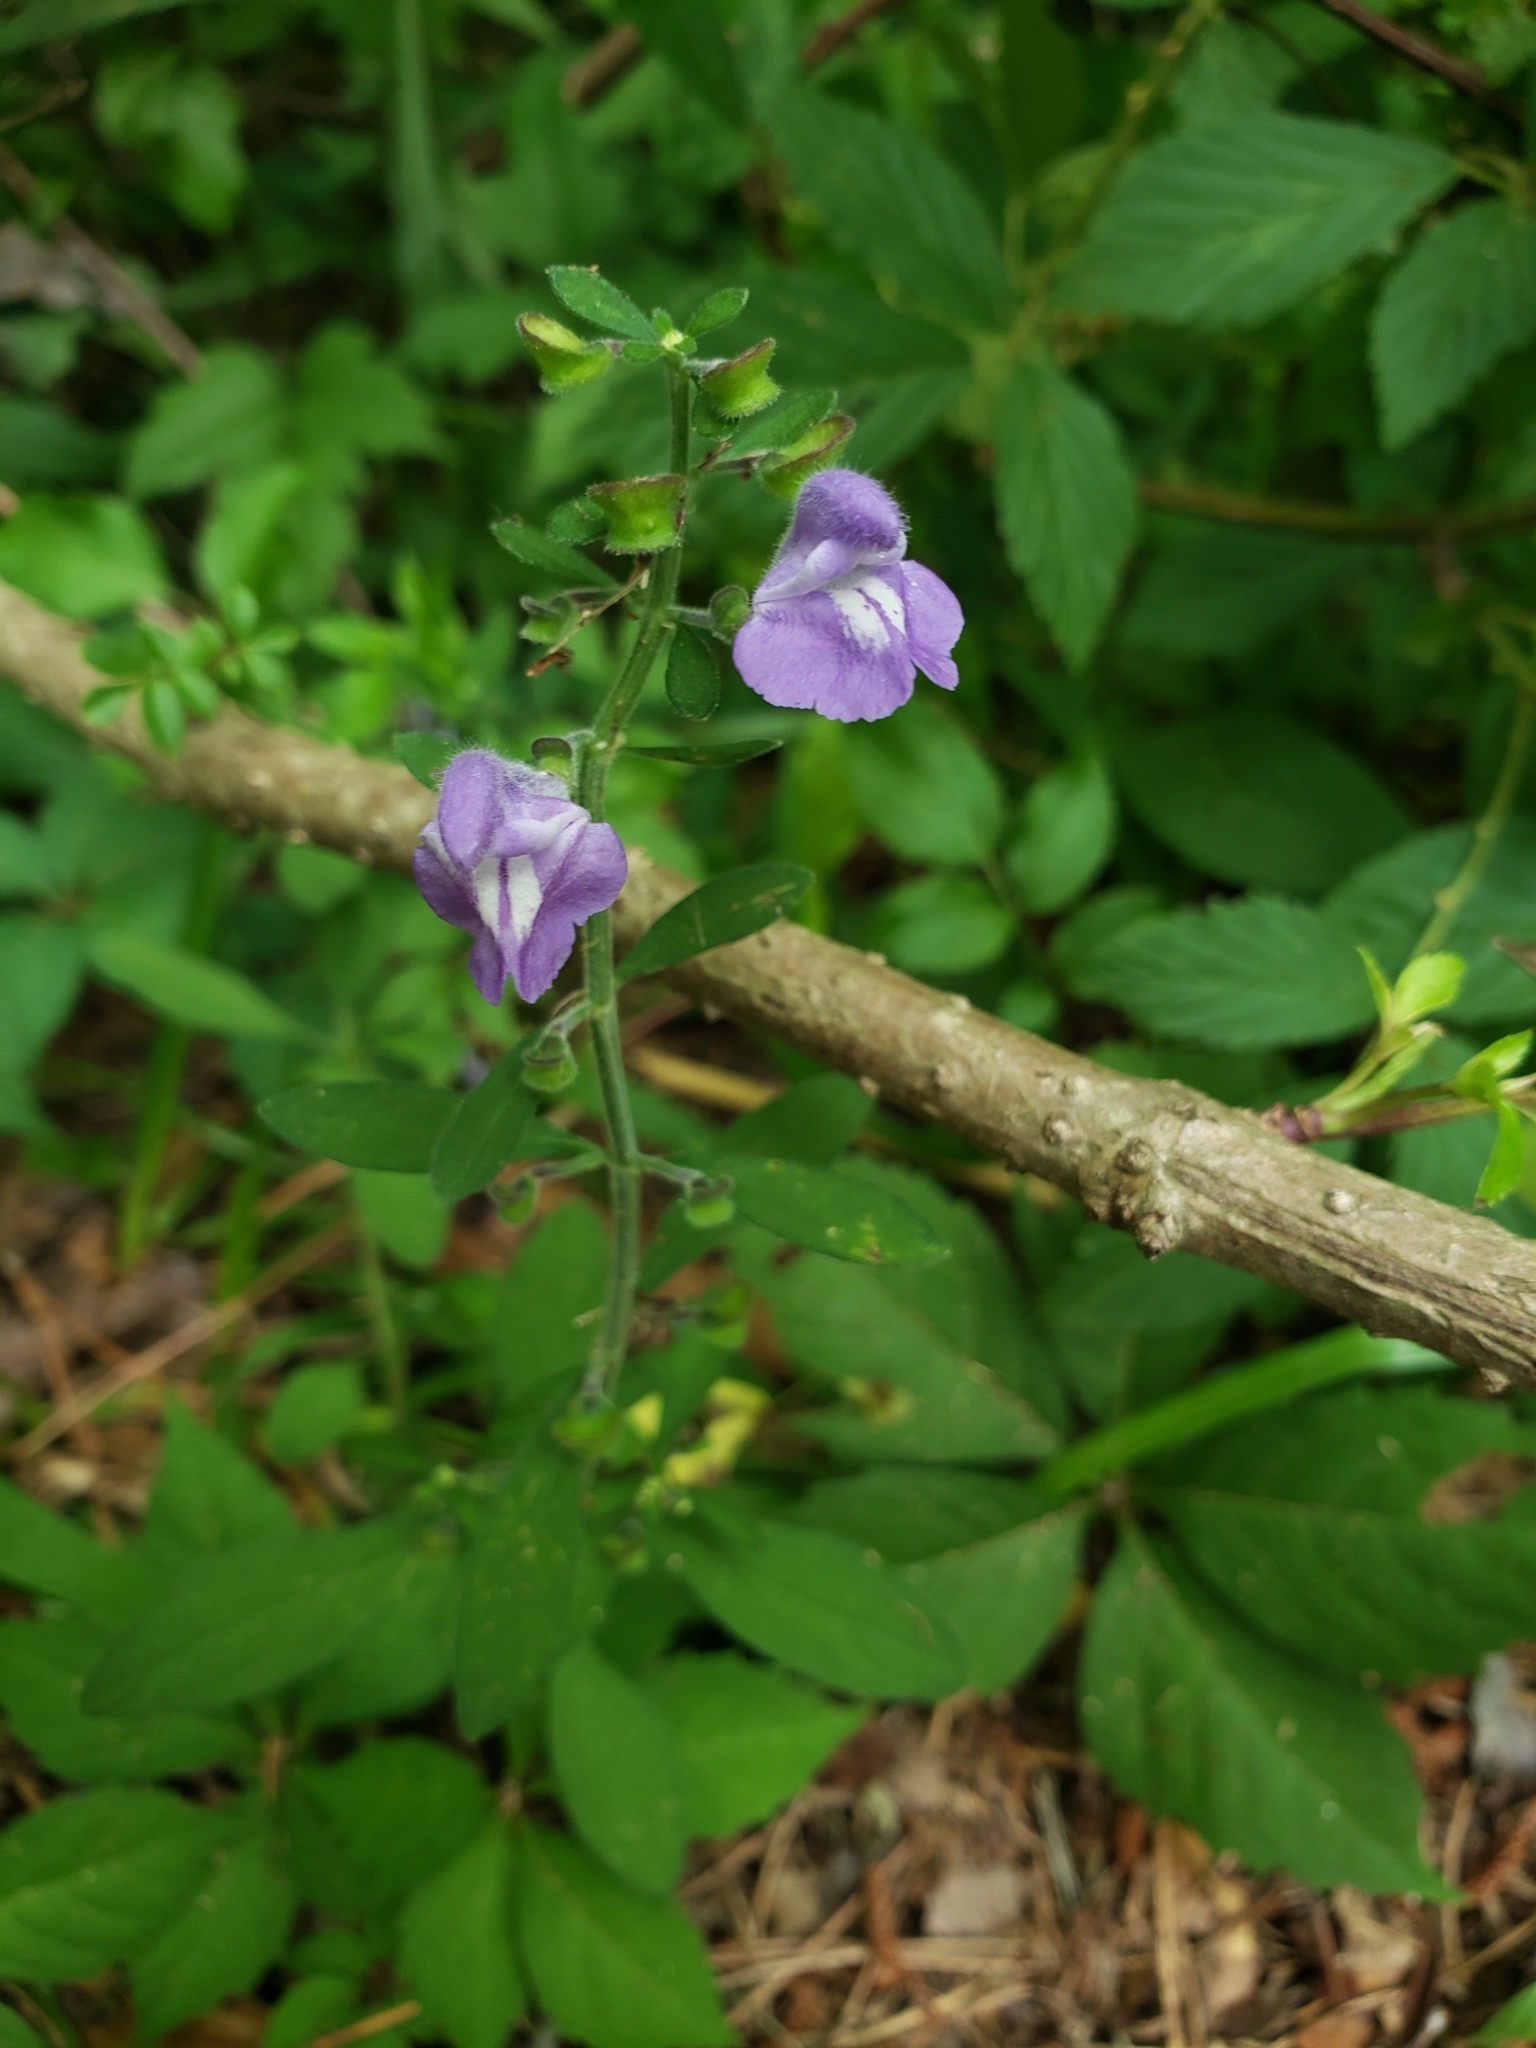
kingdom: Plantae
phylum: Tracheophyta
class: Magnoliopsida
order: Lamiales
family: Lamiaceae
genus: Scutellaria
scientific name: Scutellaria integrifolia
